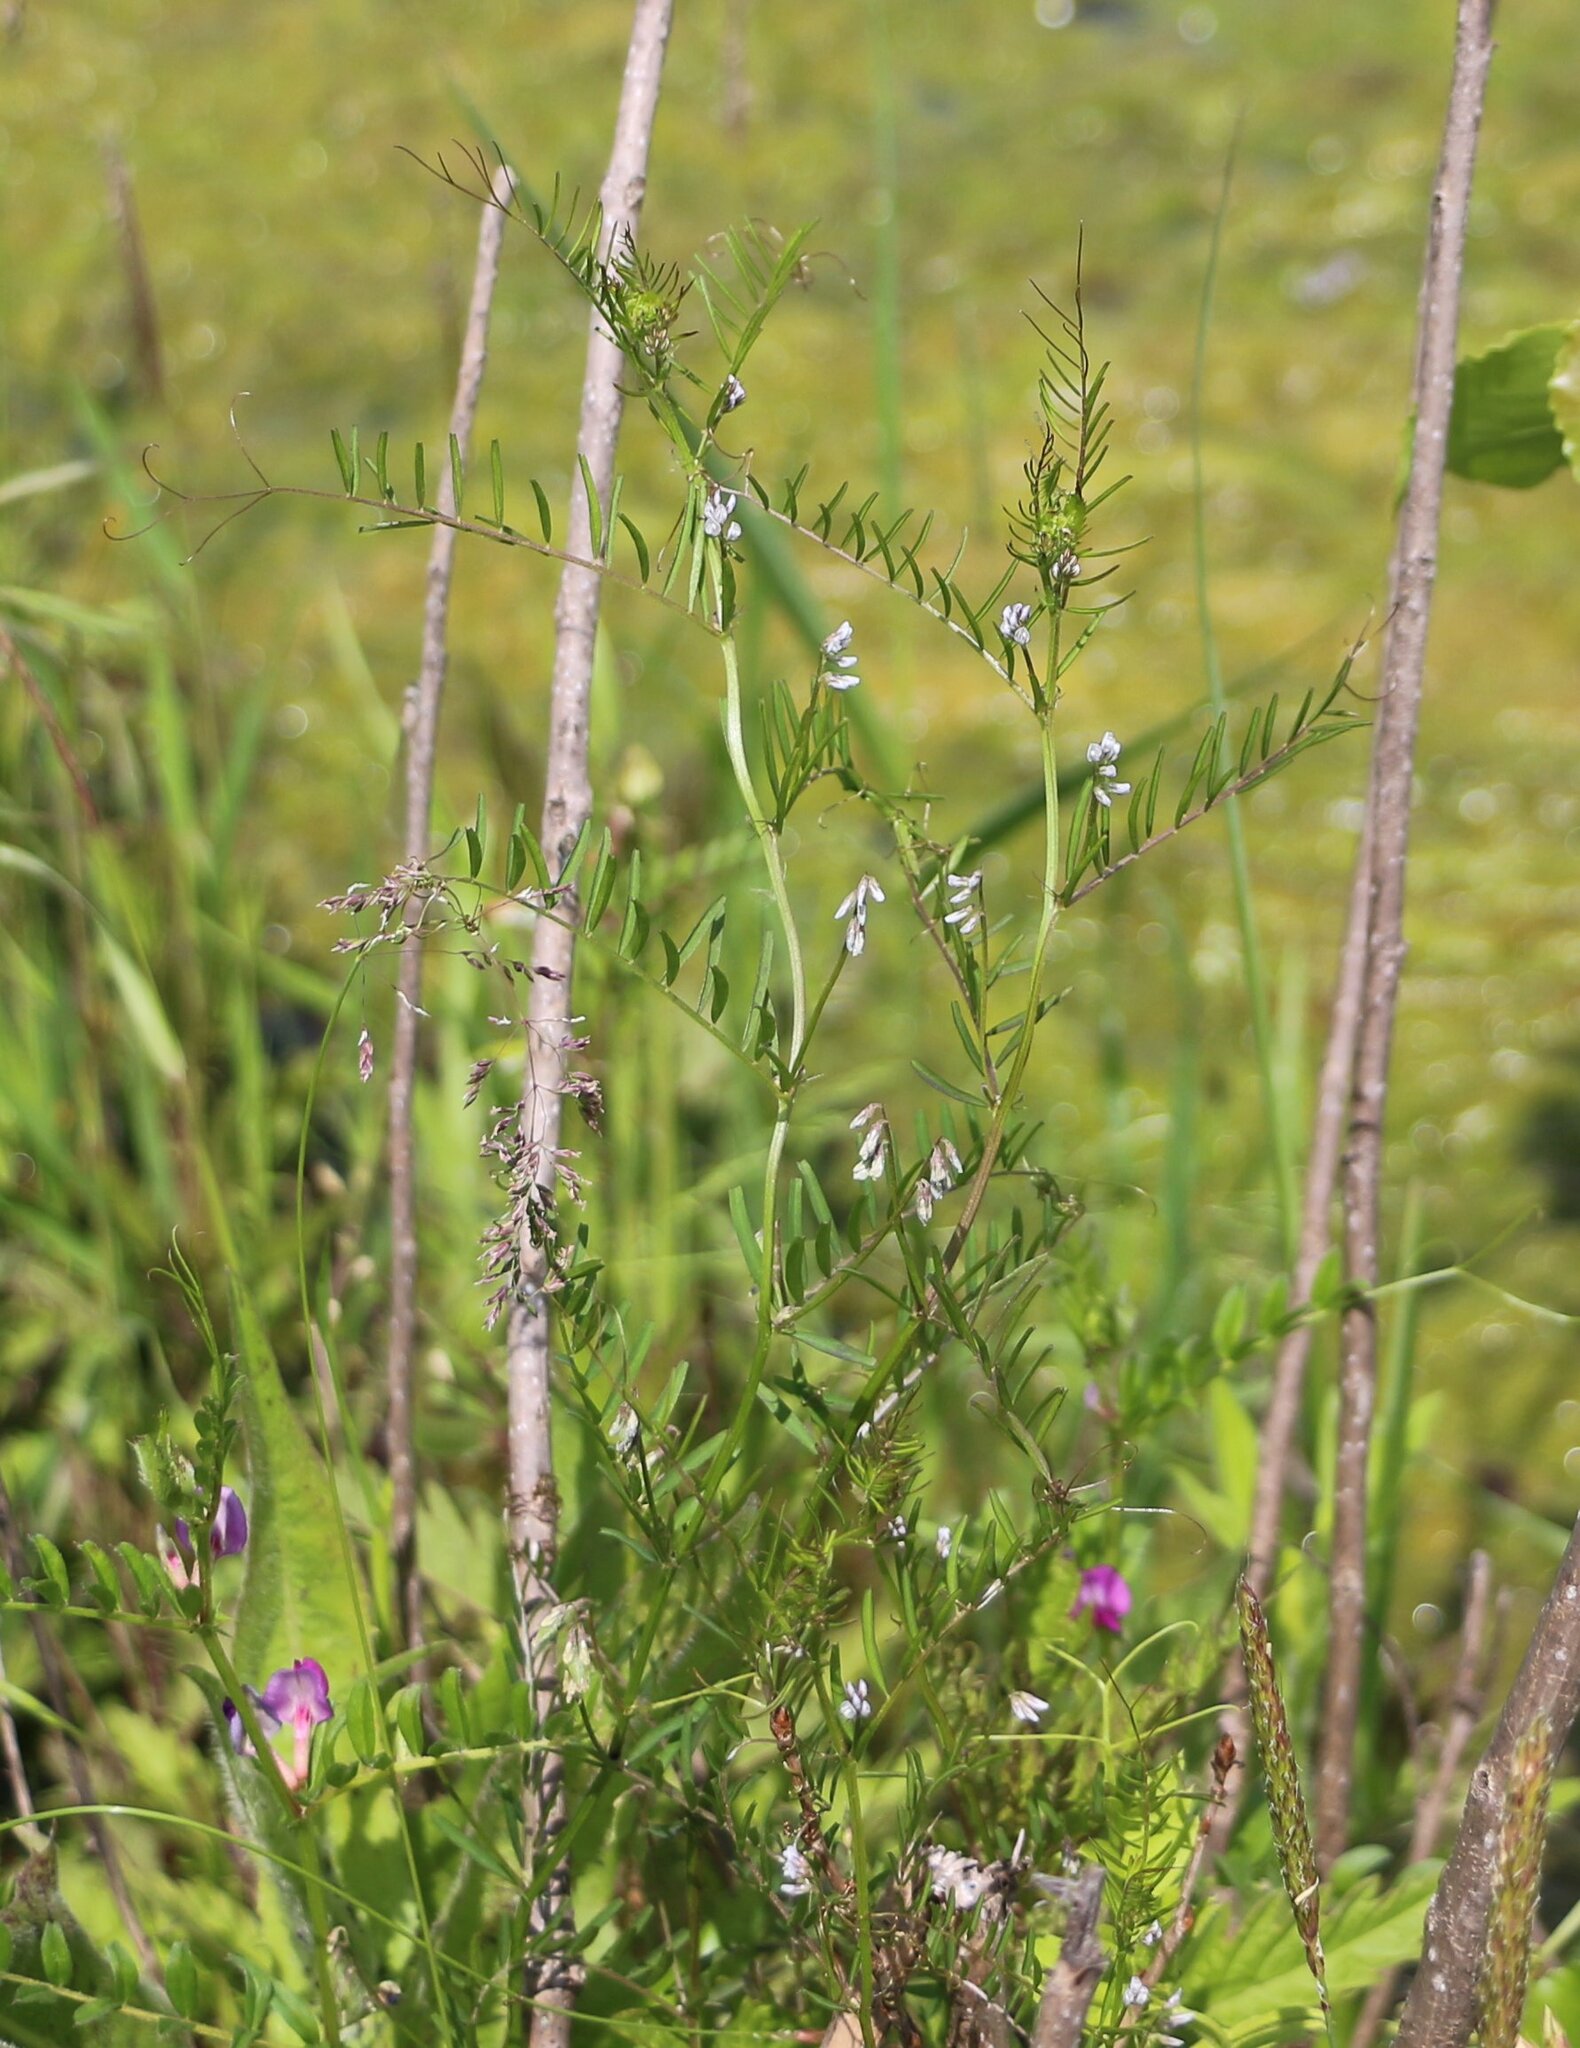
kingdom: Plantae
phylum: Tracheophyta
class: Magnoliopsida
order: Fabales
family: Fabaceae
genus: Vicia
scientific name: Vicia hirsuta
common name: Tiny vetch
